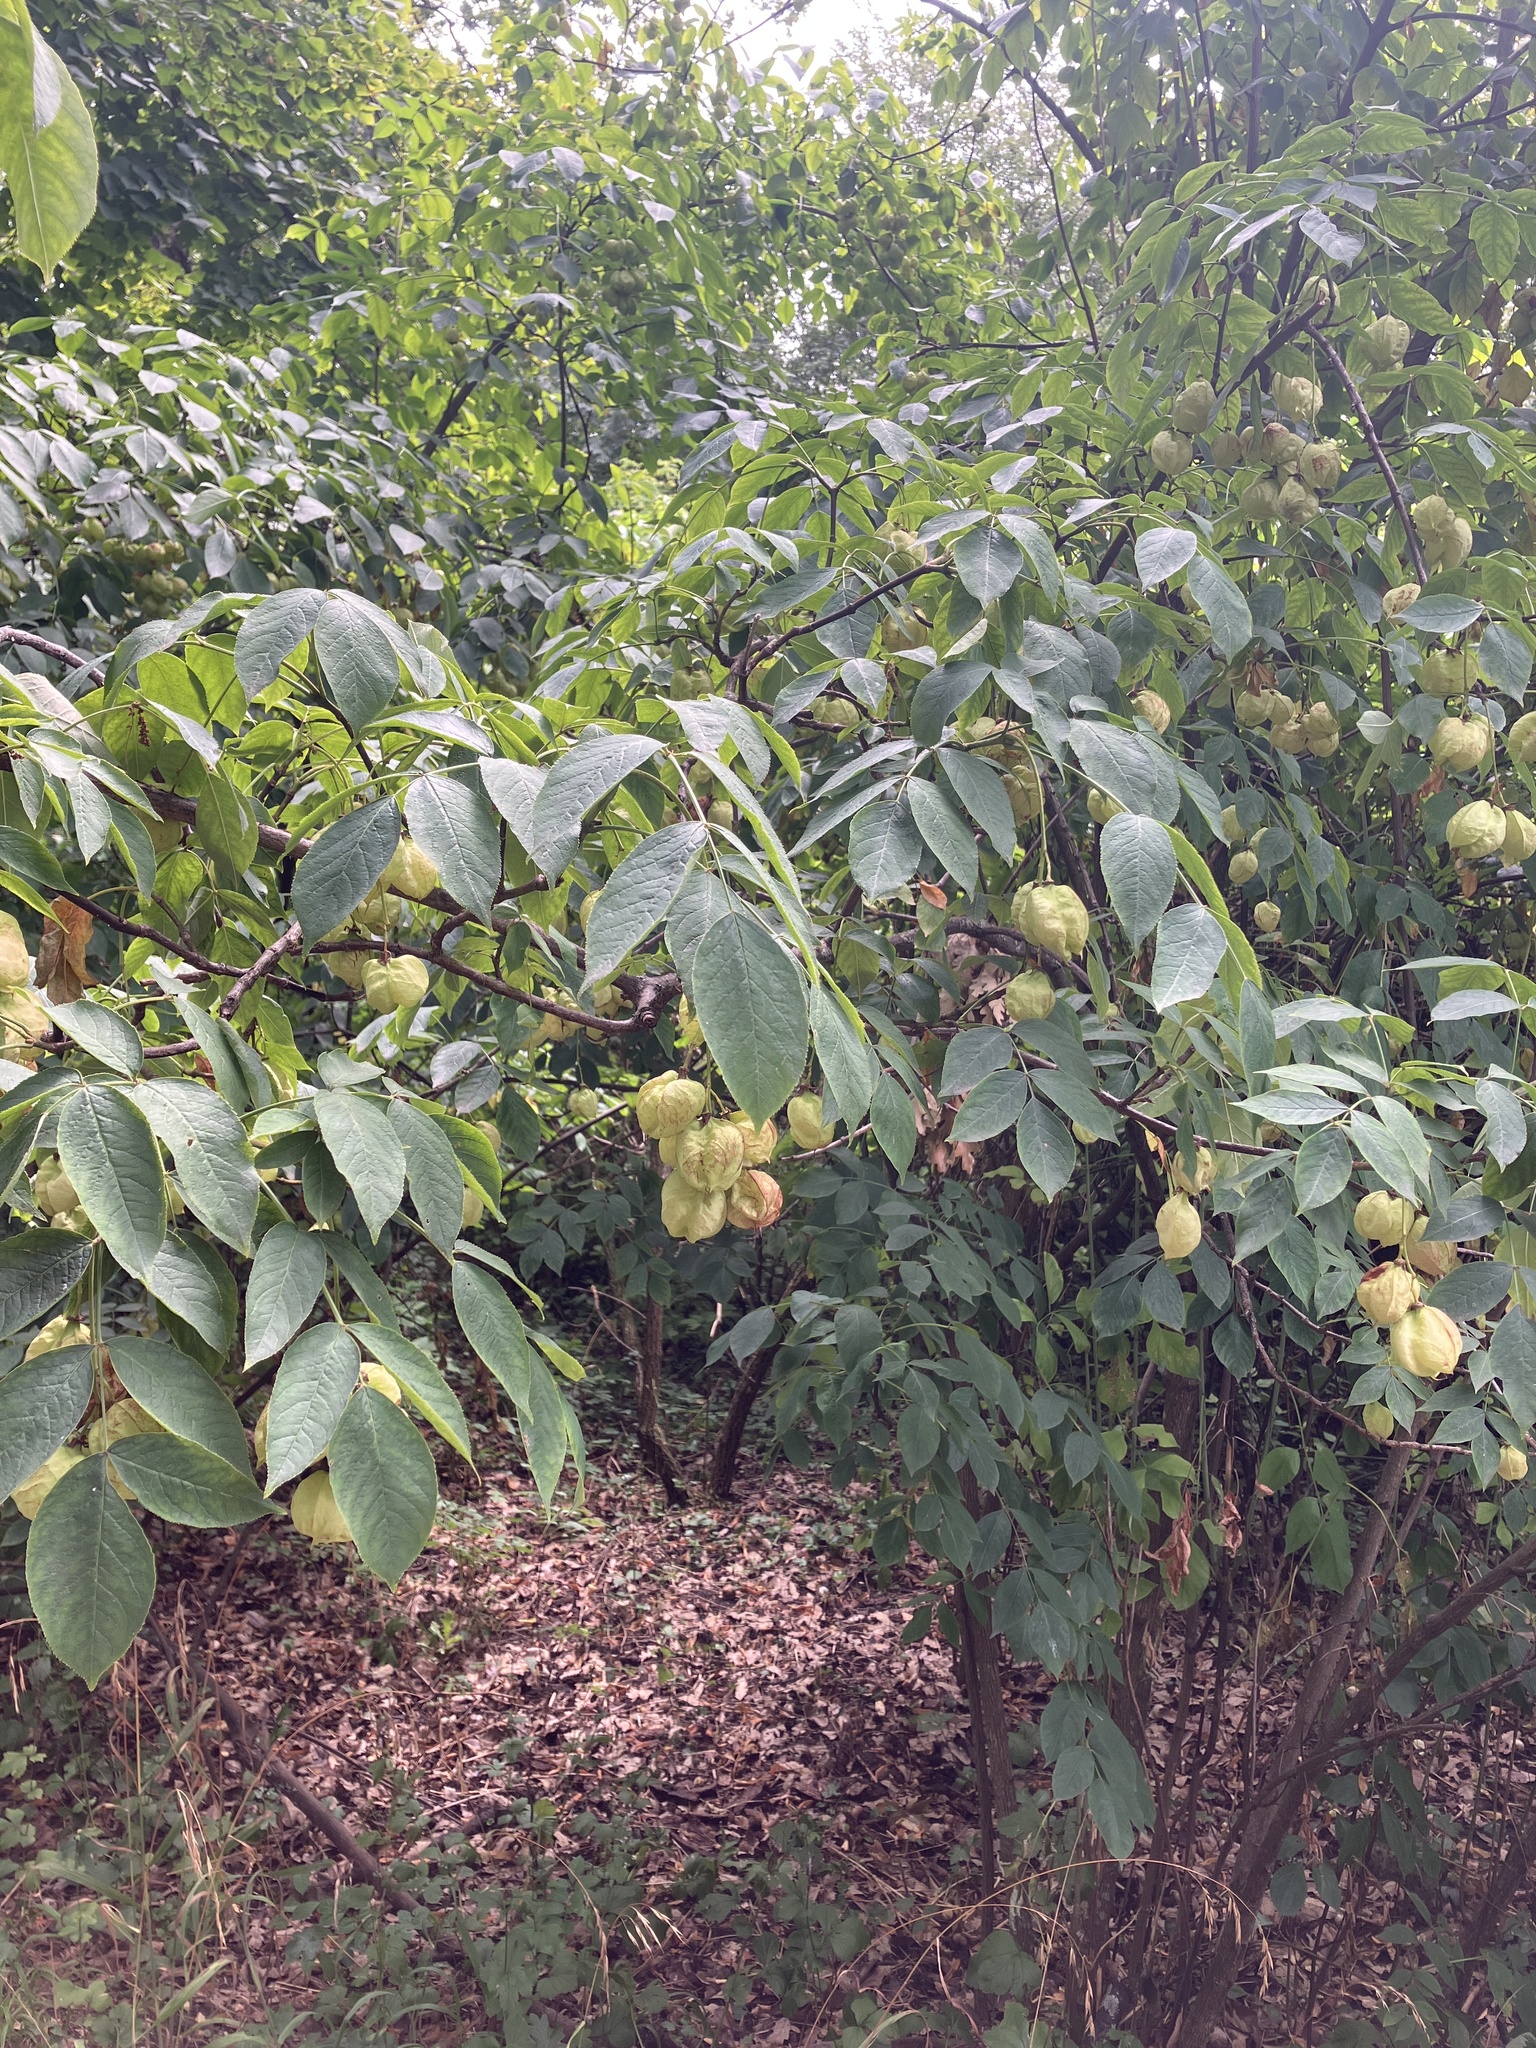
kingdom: Plantae
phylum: Tracheophyta
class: Magnoliopsida
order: Crossosomatales
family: Staphyleaceae
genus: Staphylea
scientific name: Staphylea pinnata
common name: Bladdernut
